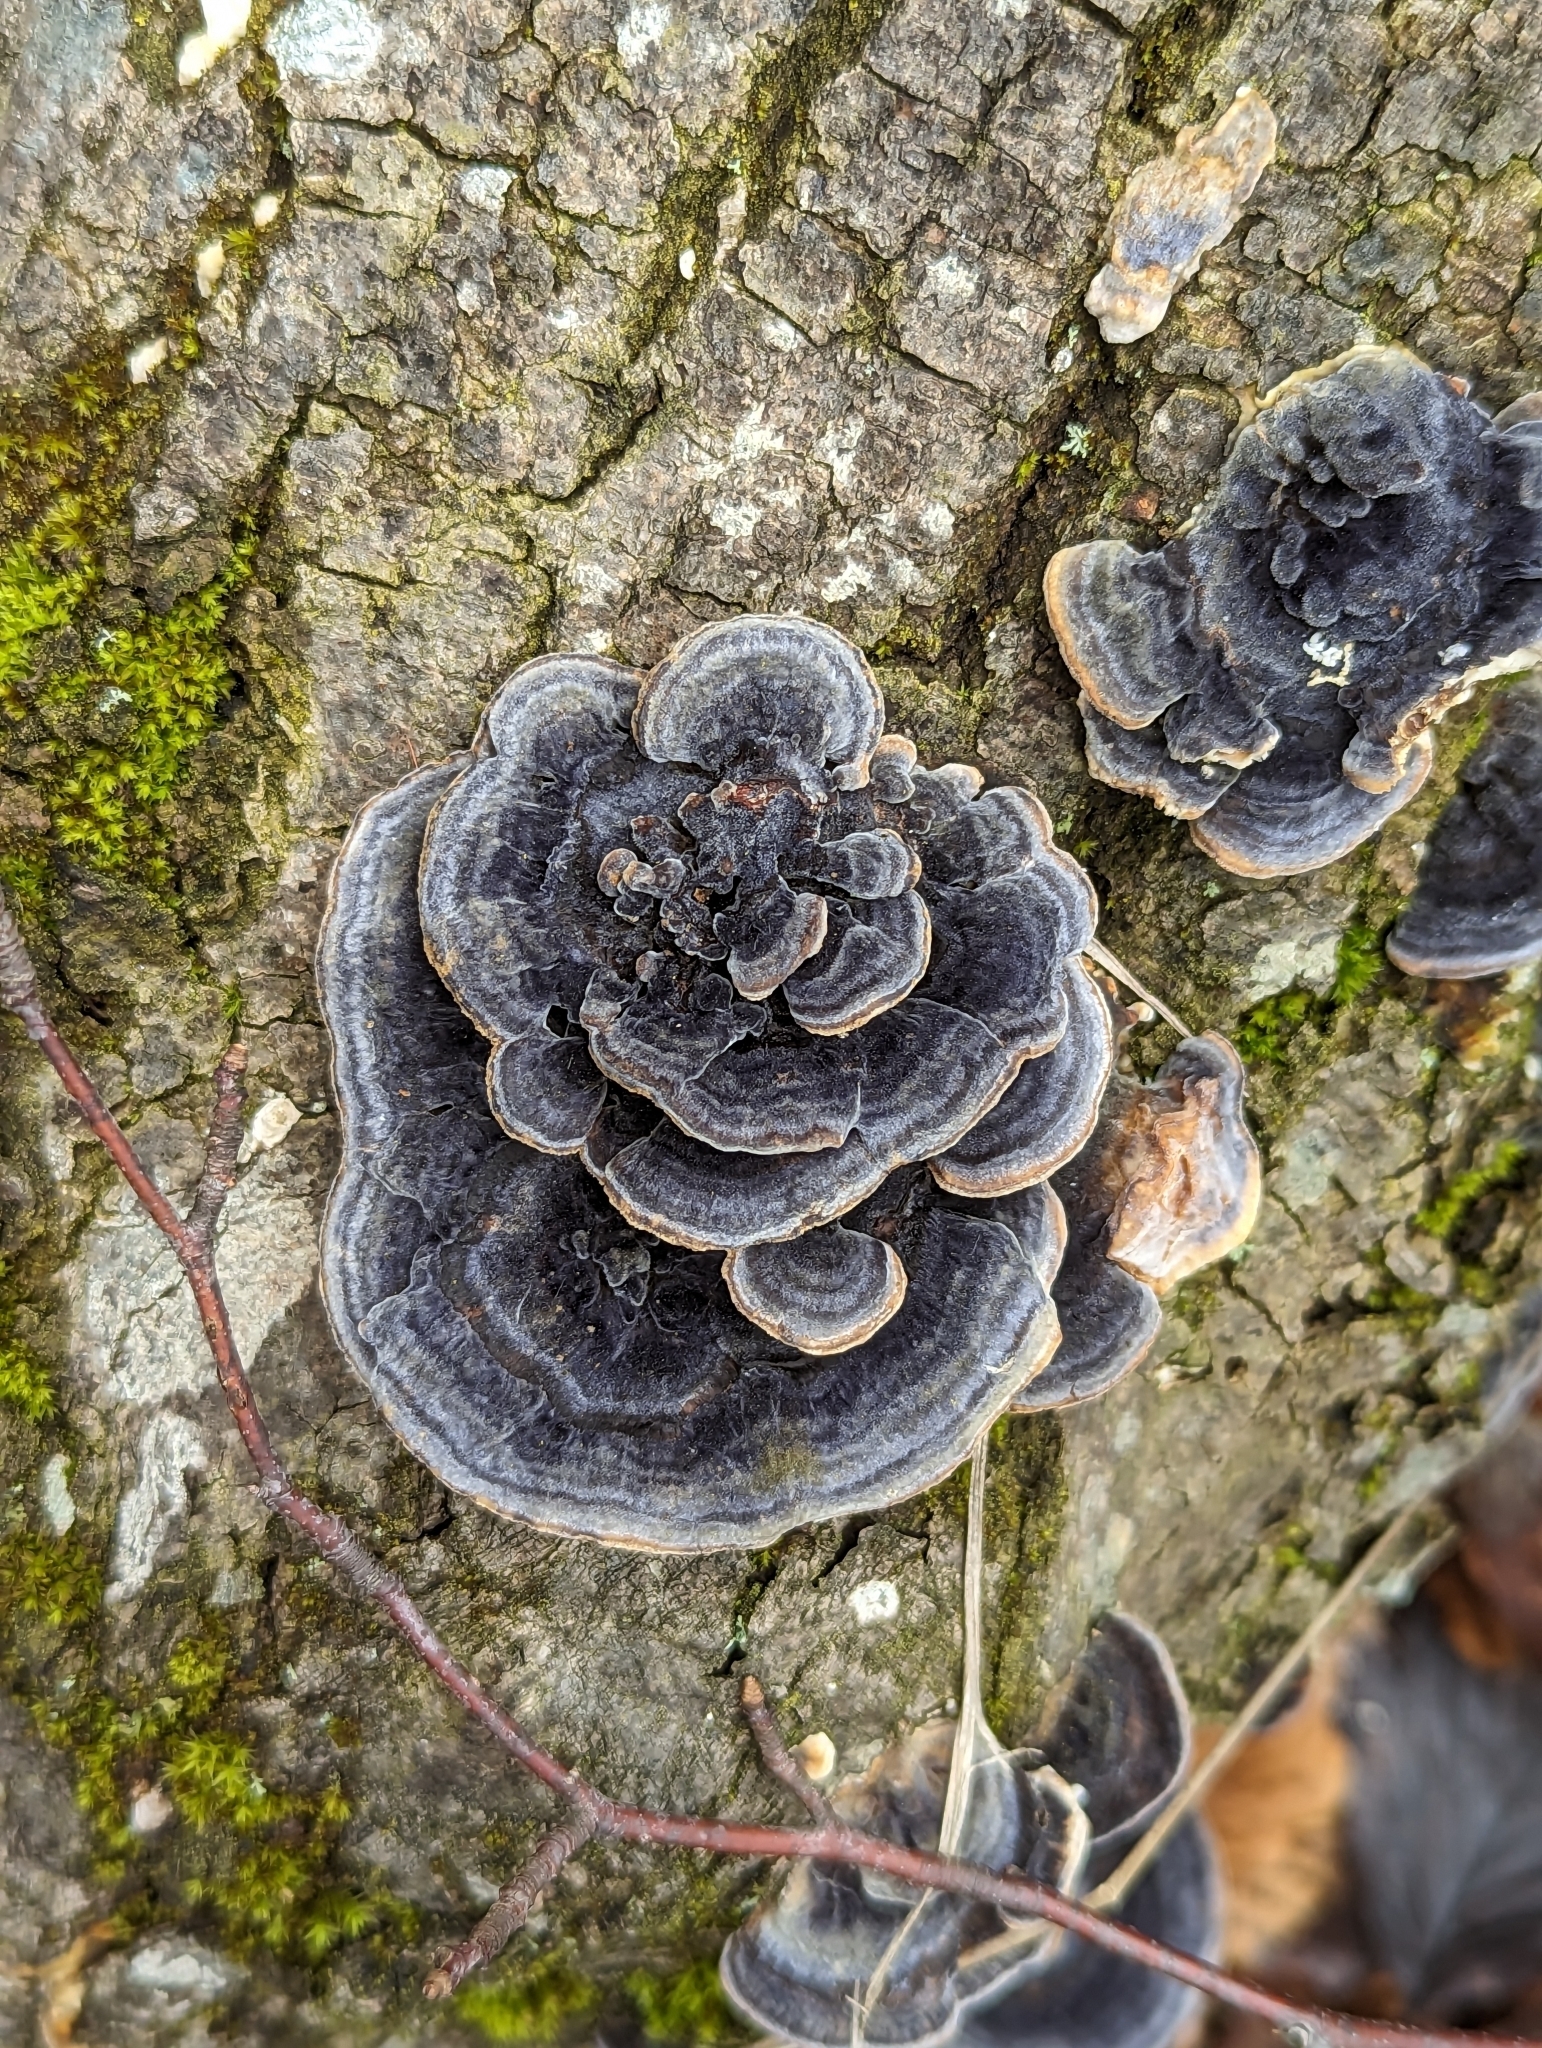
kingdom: Fungi
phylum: Basidiomycota
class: Agaricomycetes
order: Polyporales
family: Polyporaceae
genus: Trametes
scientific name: Trametes versicolor
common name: Turkeytail
